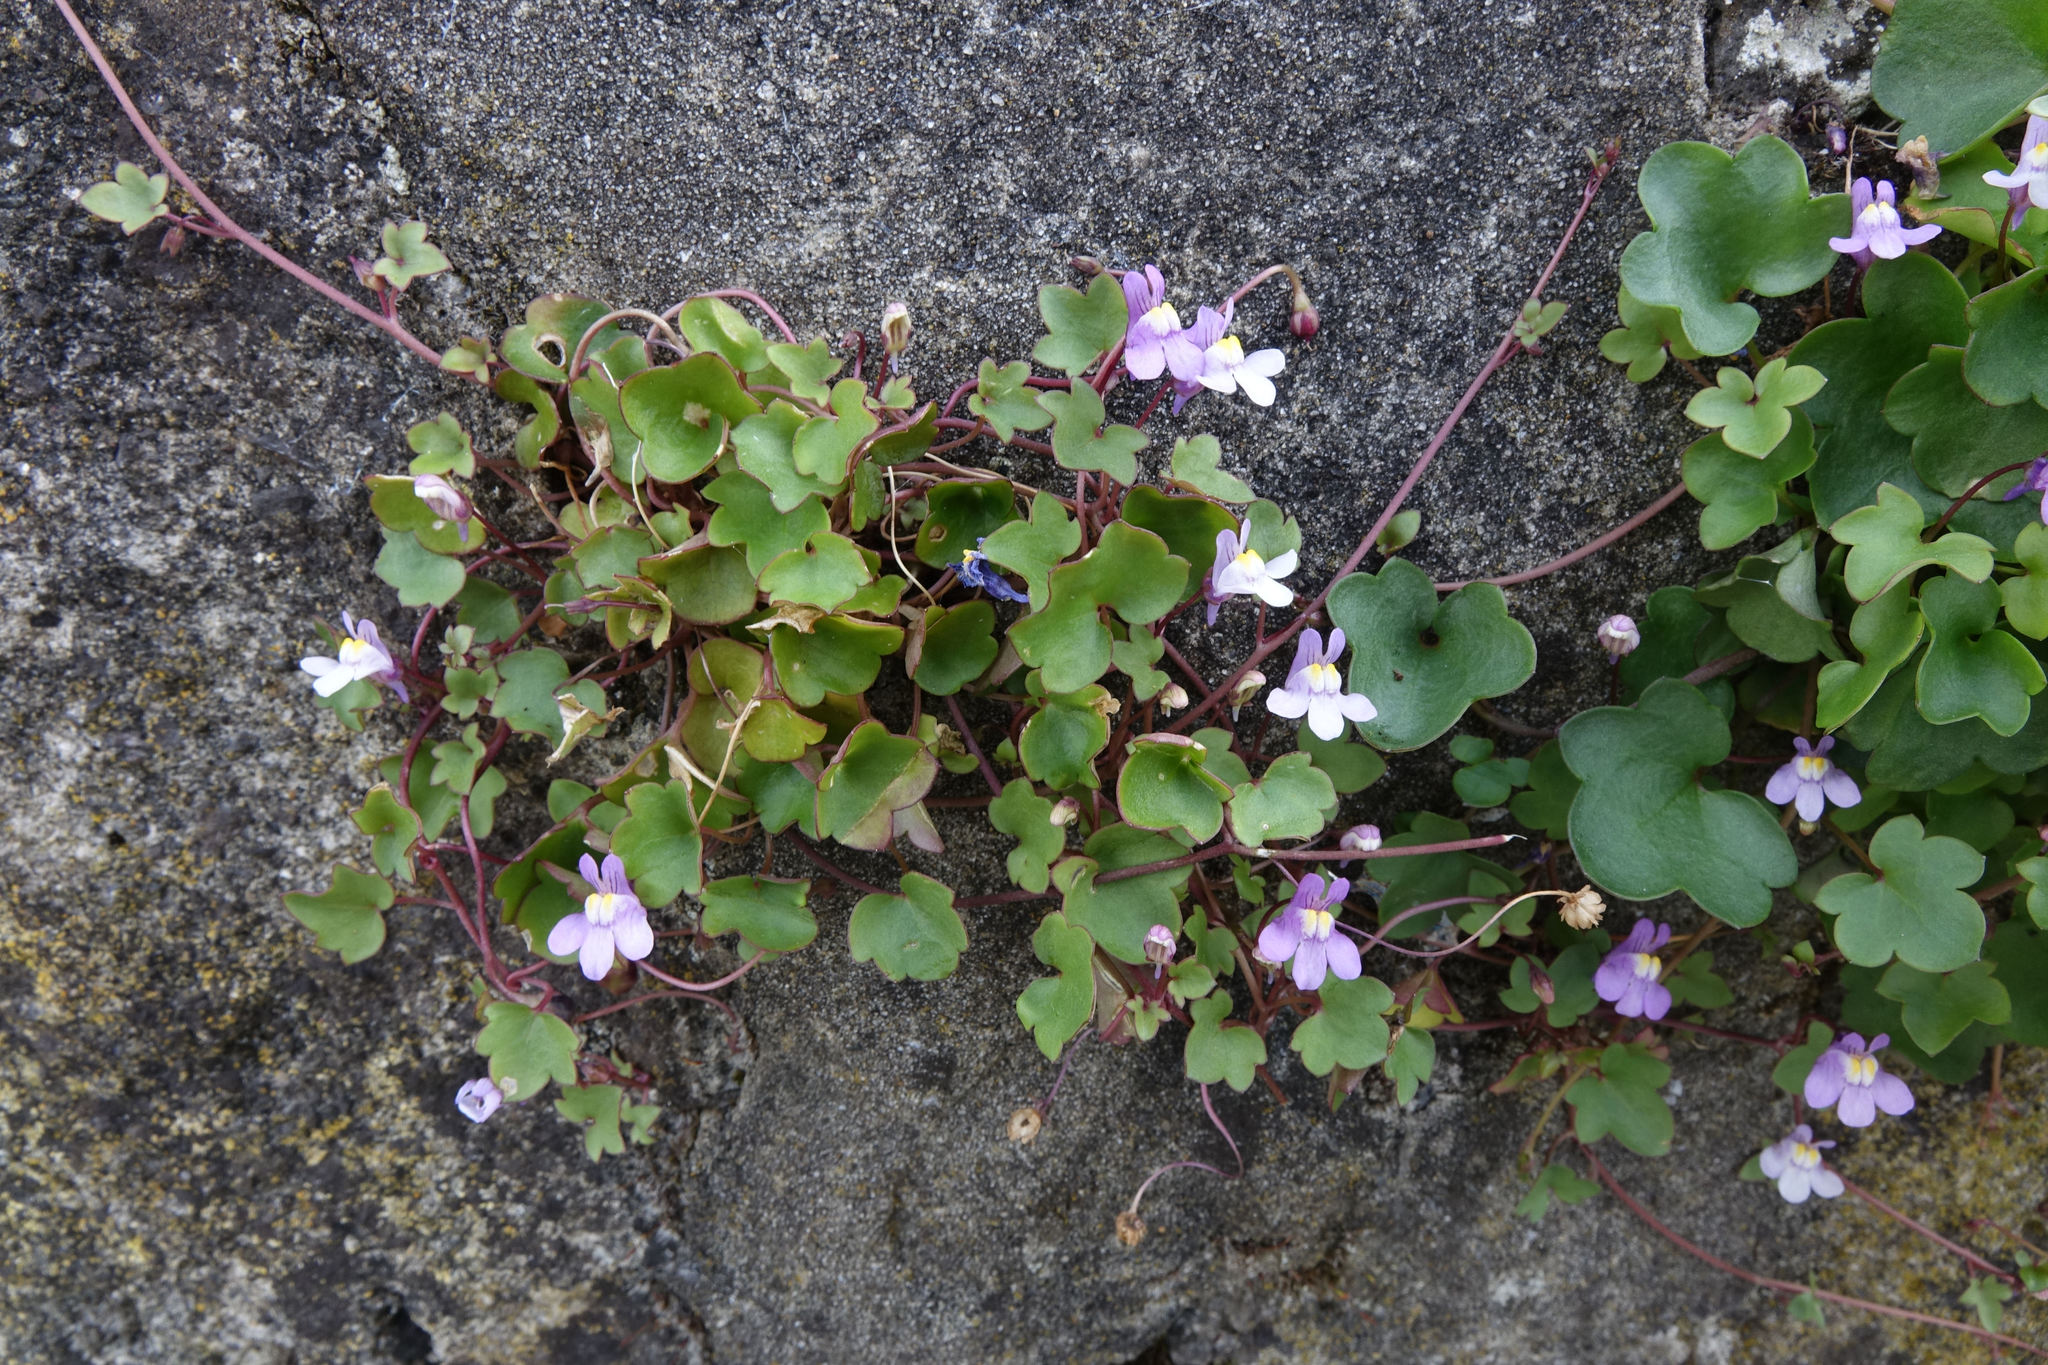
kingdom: Plantae
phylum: Tracheophyta
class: Magnoliopsida
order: Lamiales
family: Plantaginaceae
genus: Cymbalaria
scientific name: Cymbalaria muralis
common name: Ivy-leaved toadflax
